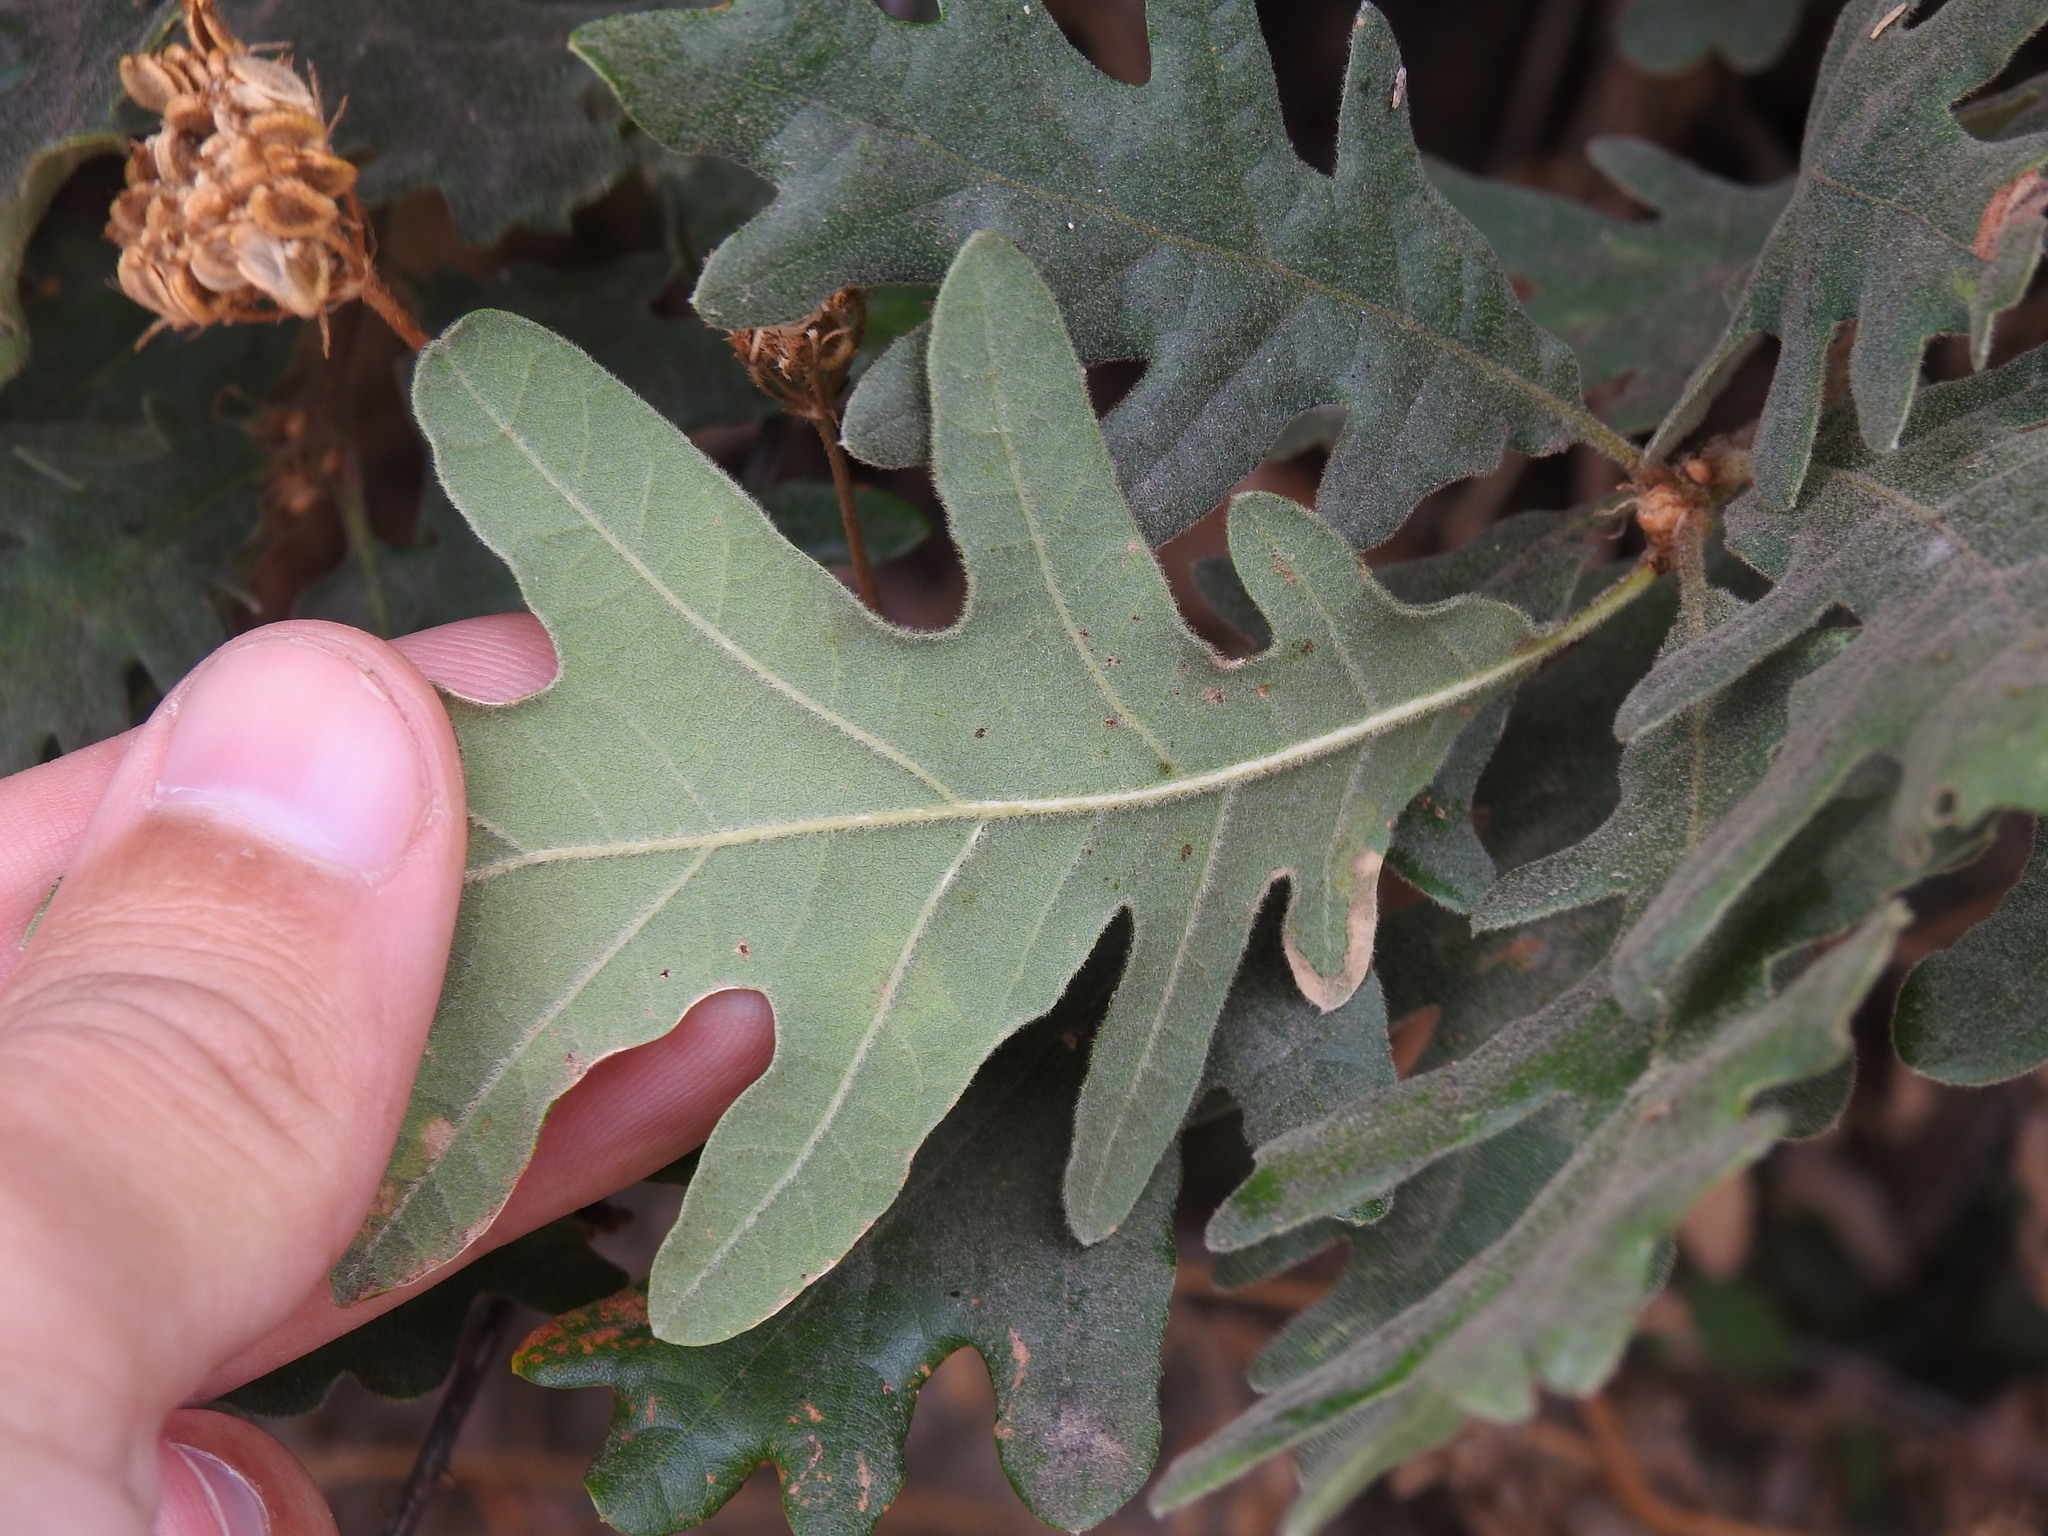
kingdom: Plantae
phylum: Tracheophyta
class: Magnoliopsida
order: Fagales
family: Fagaceae
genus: Quercus
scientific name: Quercus pyrenaica
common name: Pyrenean oak
